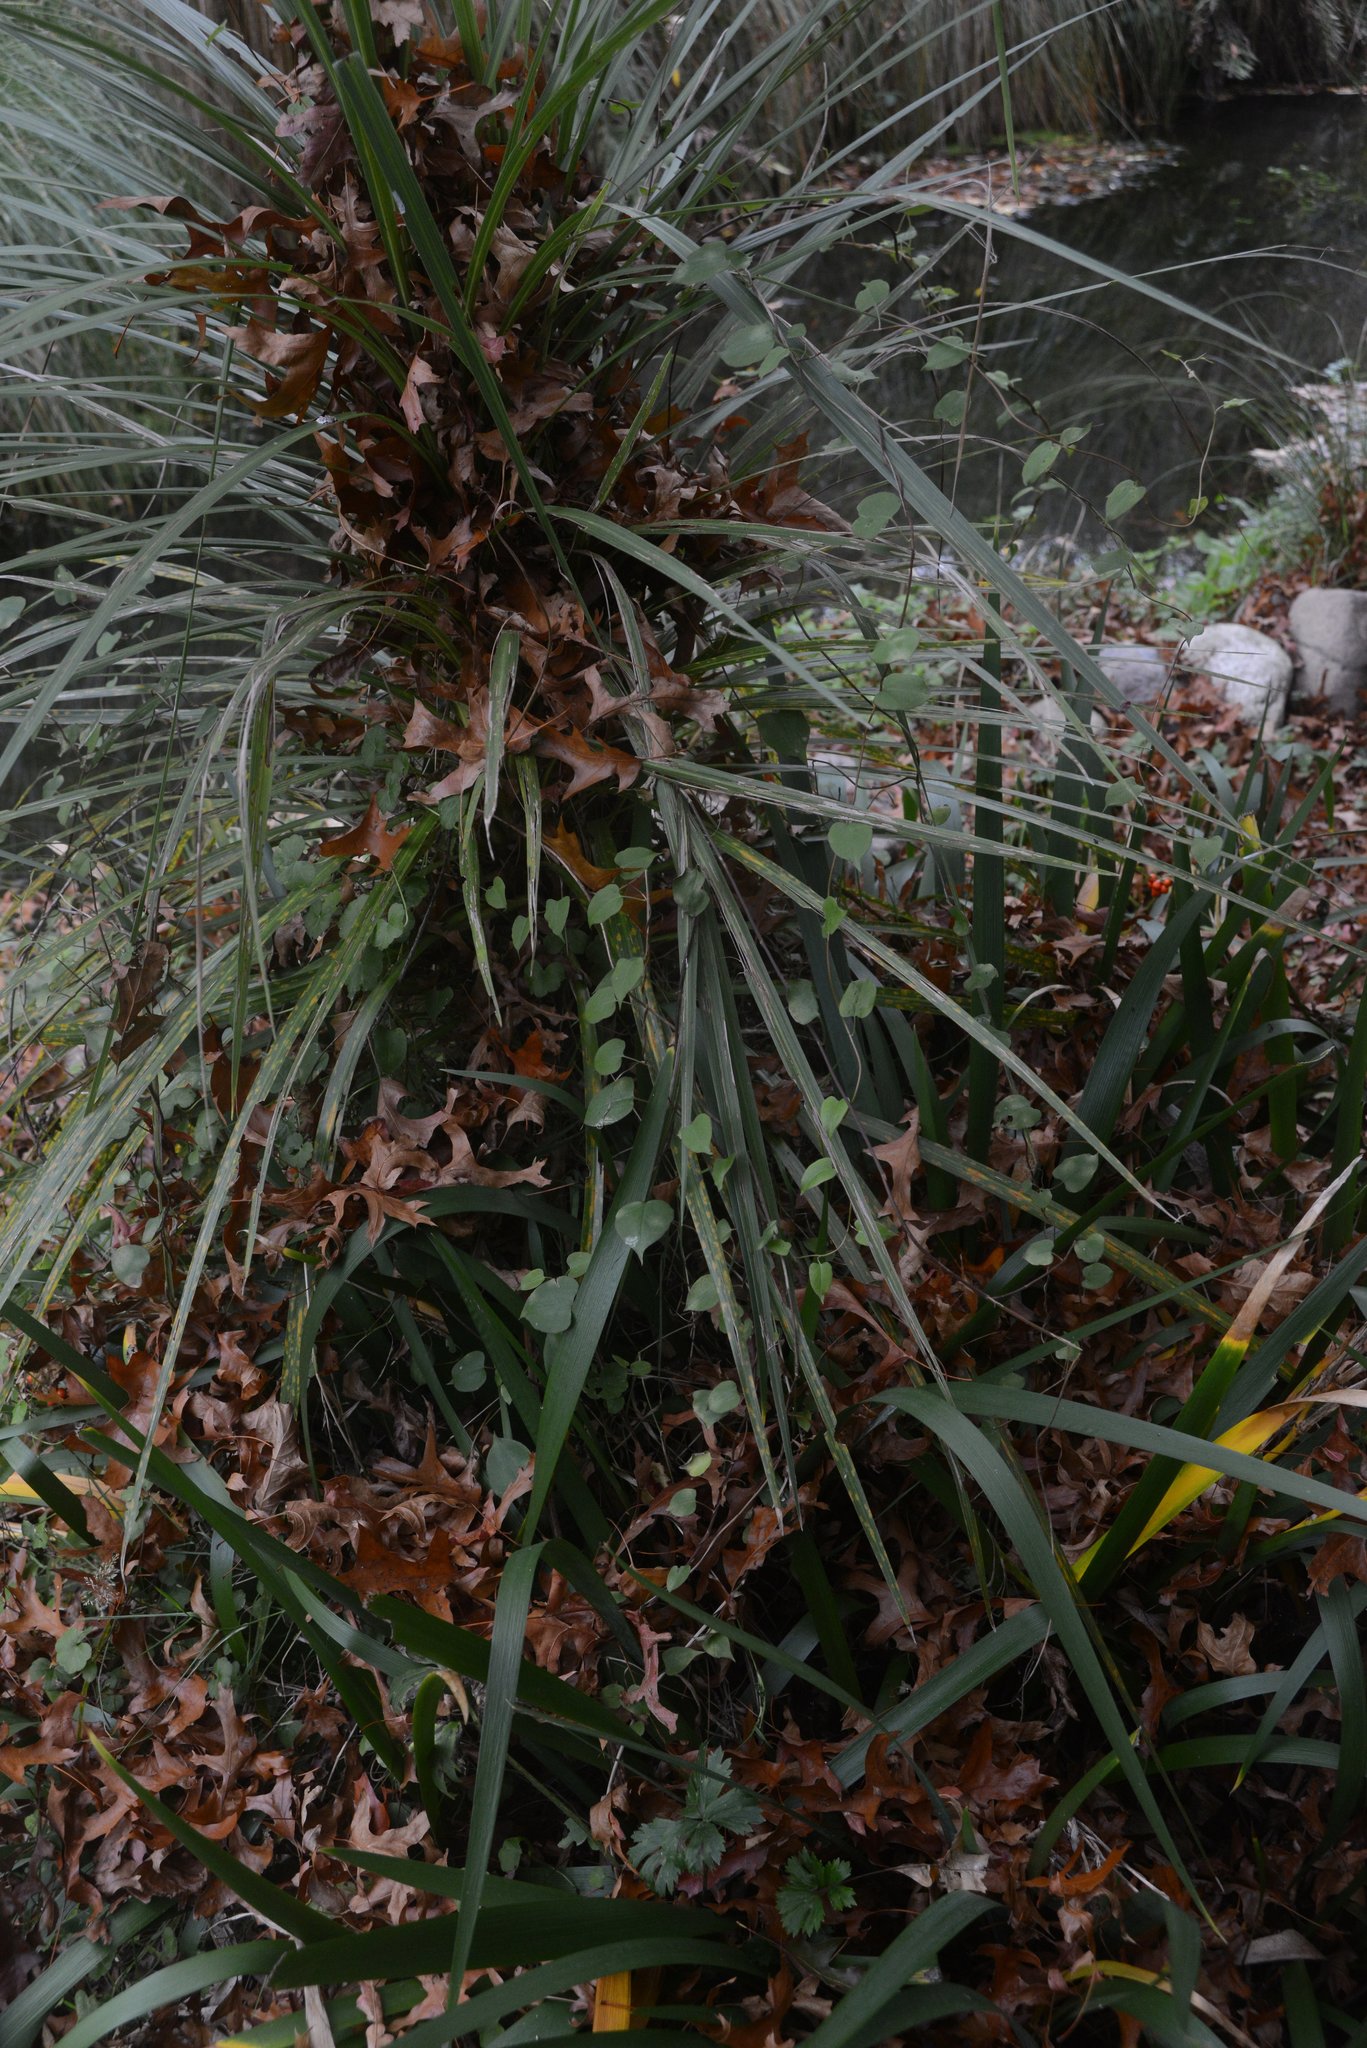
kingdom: Plantae
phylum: Tracheophyta
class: Magnoliopsida
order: Caryophyllales
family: Polygonaceae
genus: Muehlenbeckia
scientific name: Muehlenbeckia australis
